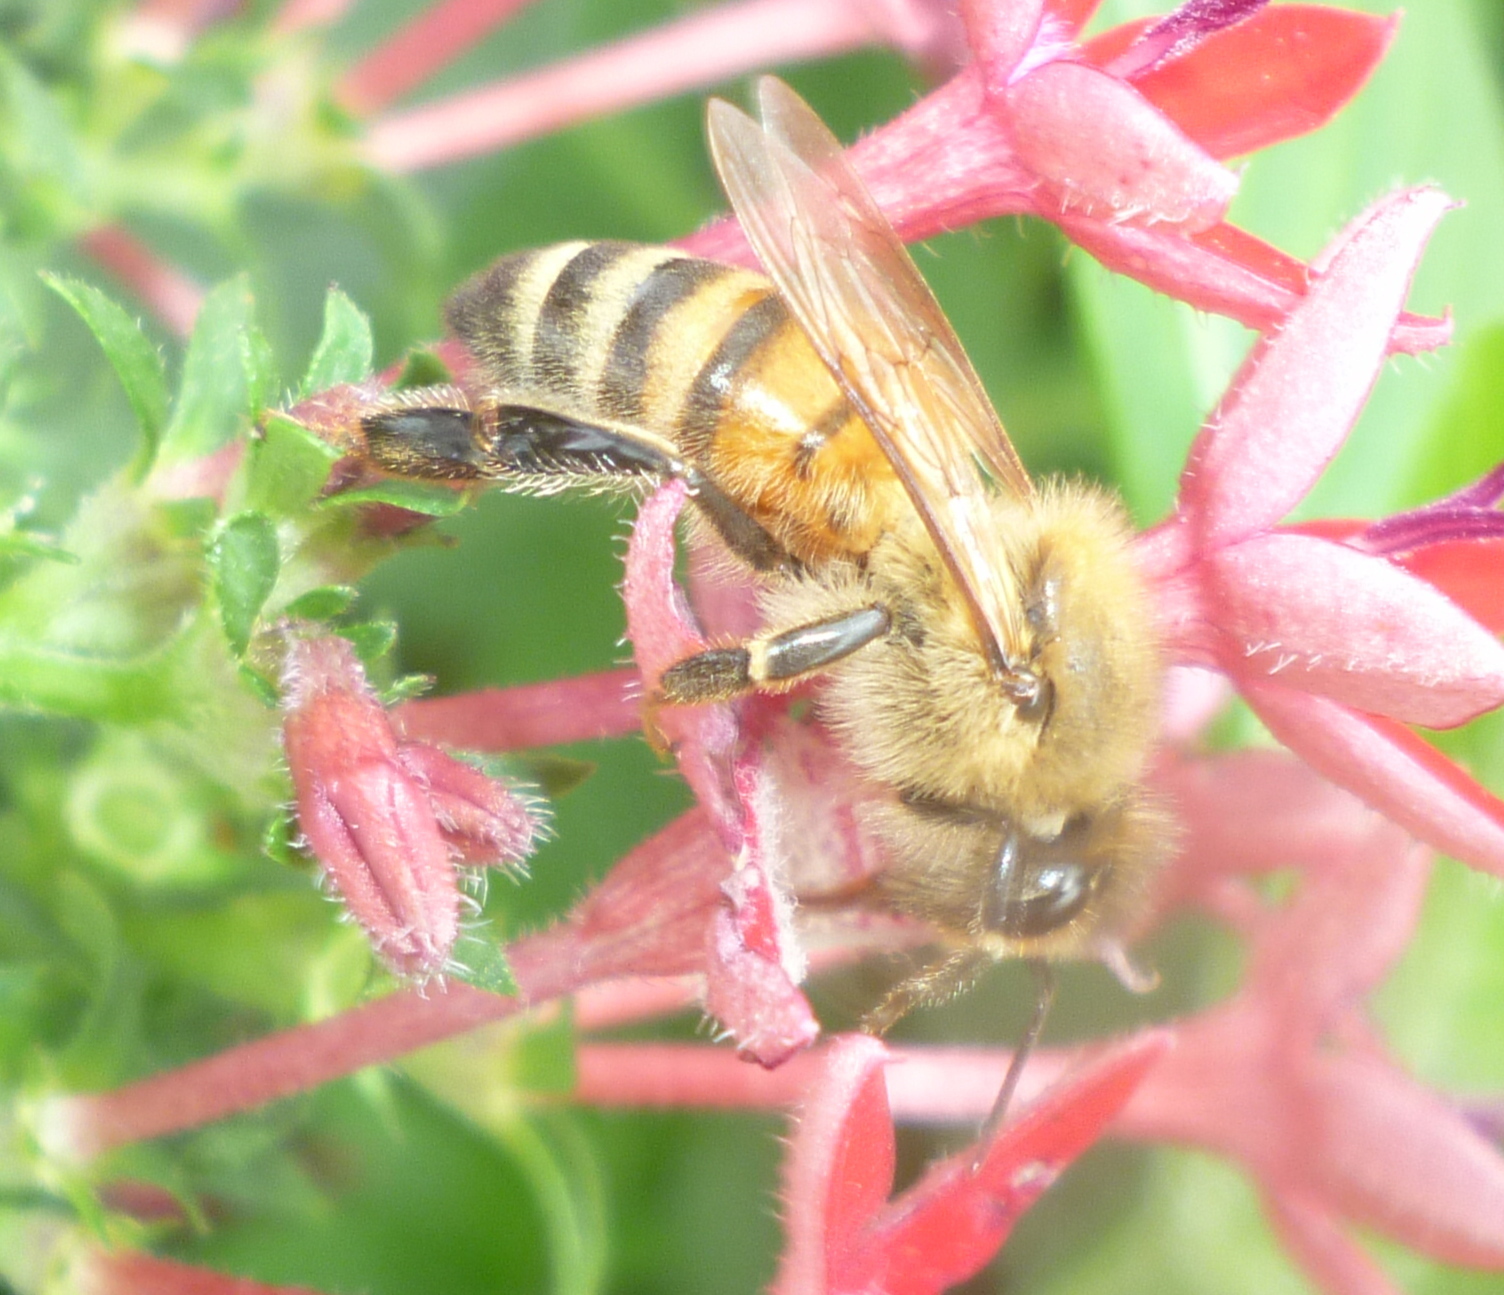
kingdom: Animalia
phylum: Arthropoda
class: Insecta
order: Hymenoptera
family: Apidae
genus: Apis
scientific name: Apis mellifera
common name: Honey bee
